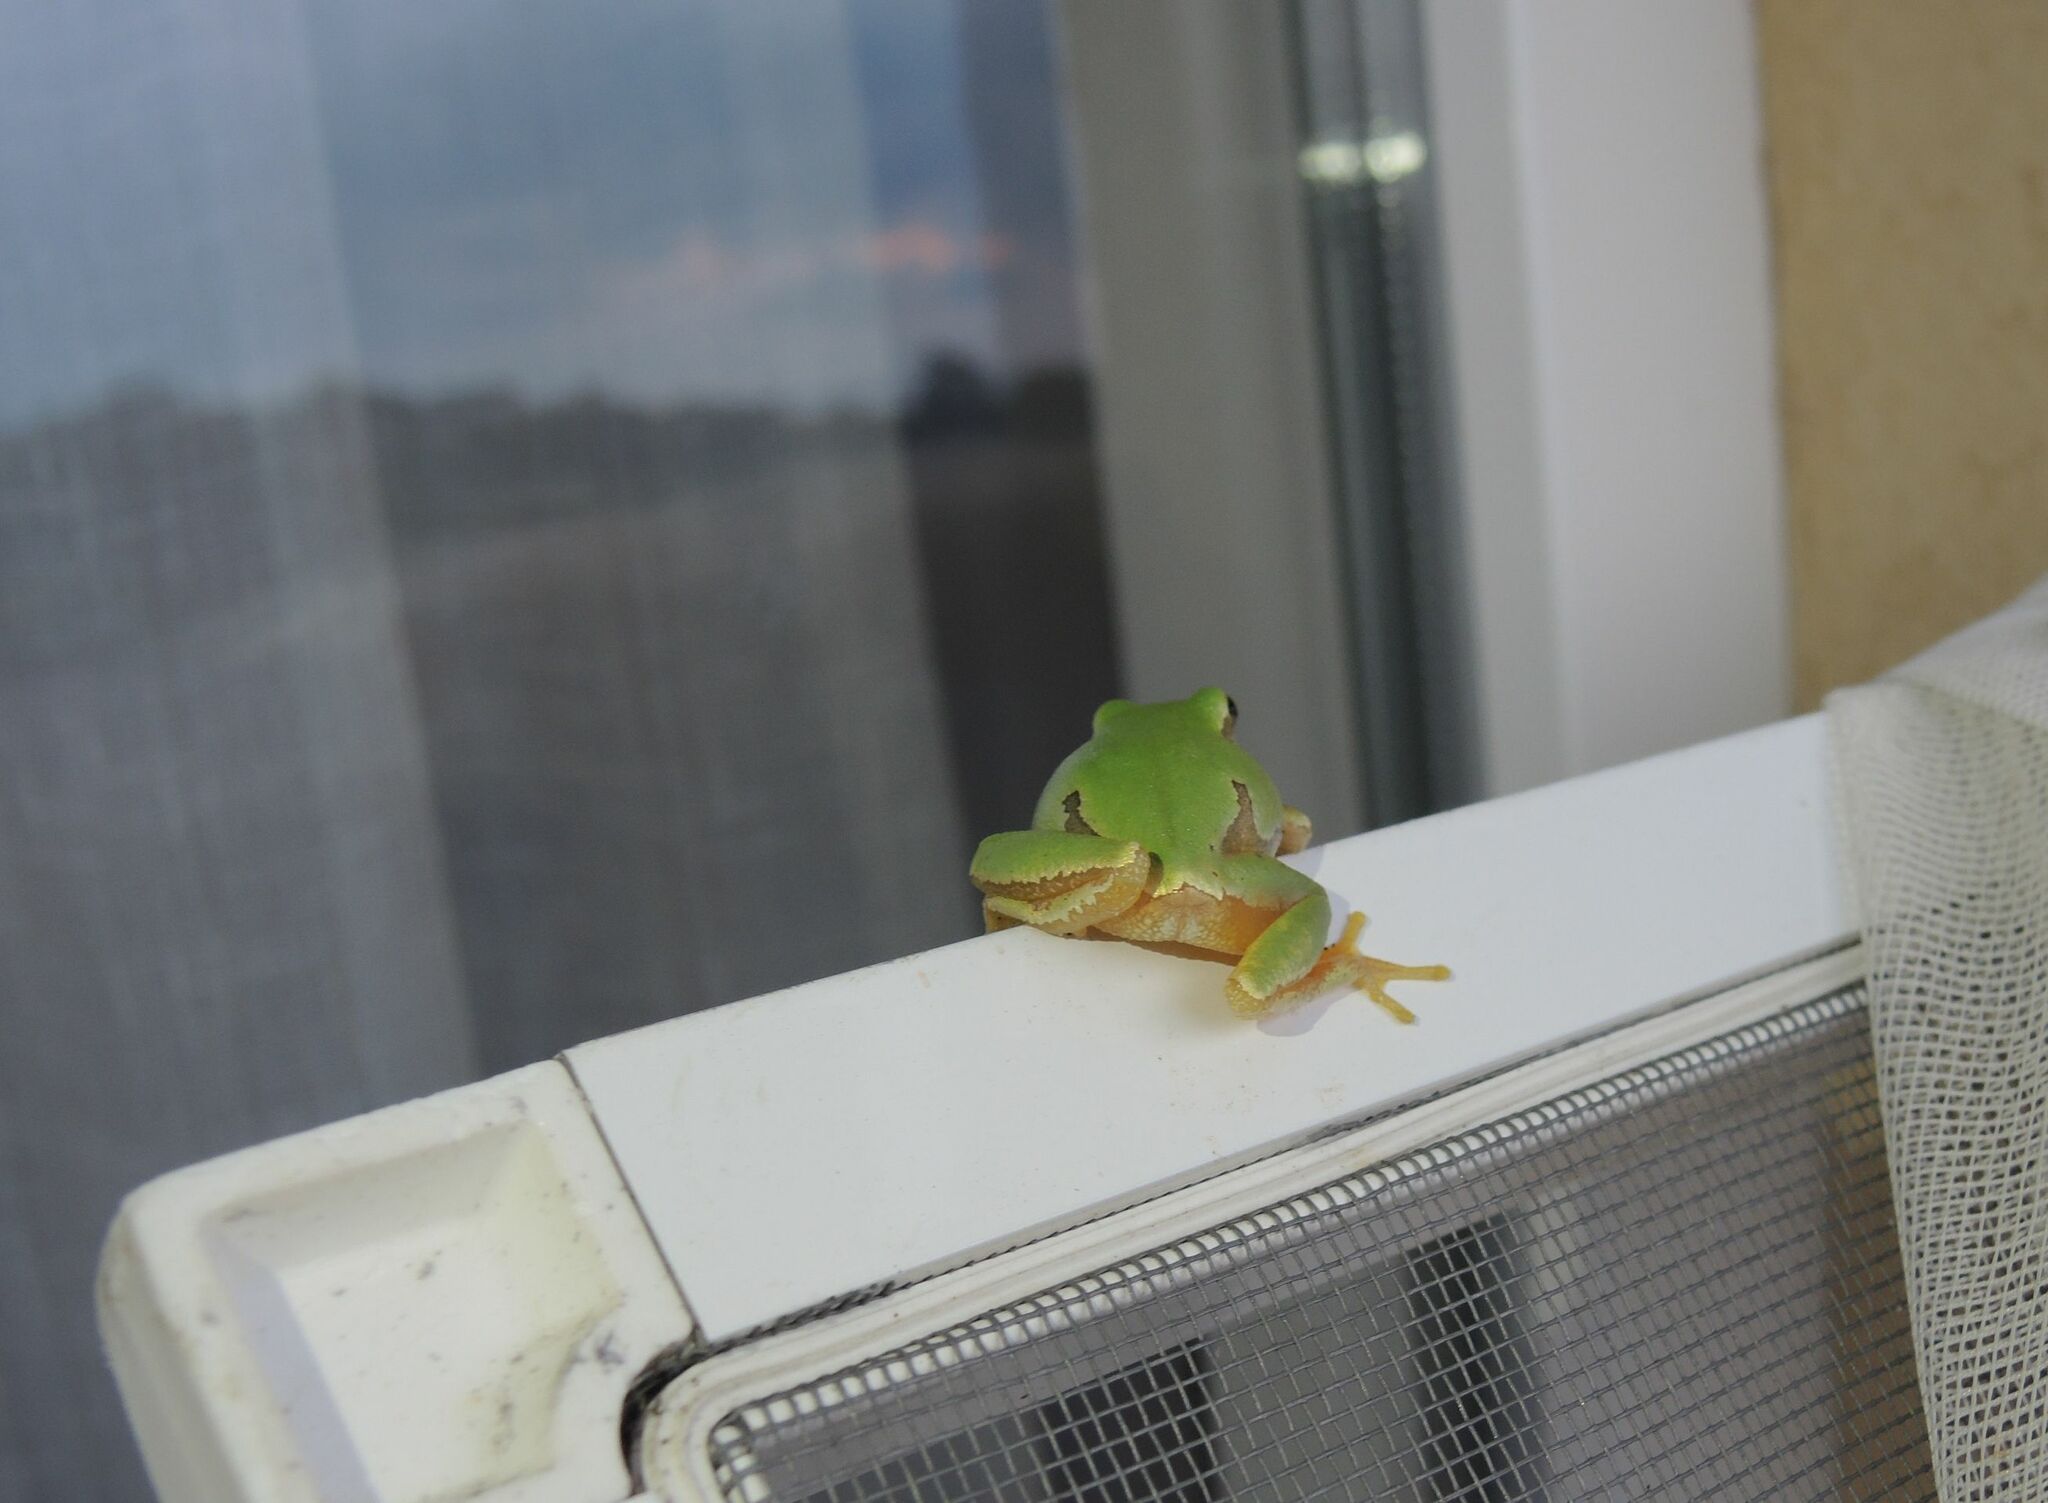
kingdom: Animalia
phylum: Chordata
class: Amphibia
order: Anura
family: Hylidae
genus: Hyla
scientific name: Hyla orientalis
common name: Caucasian treefrog
